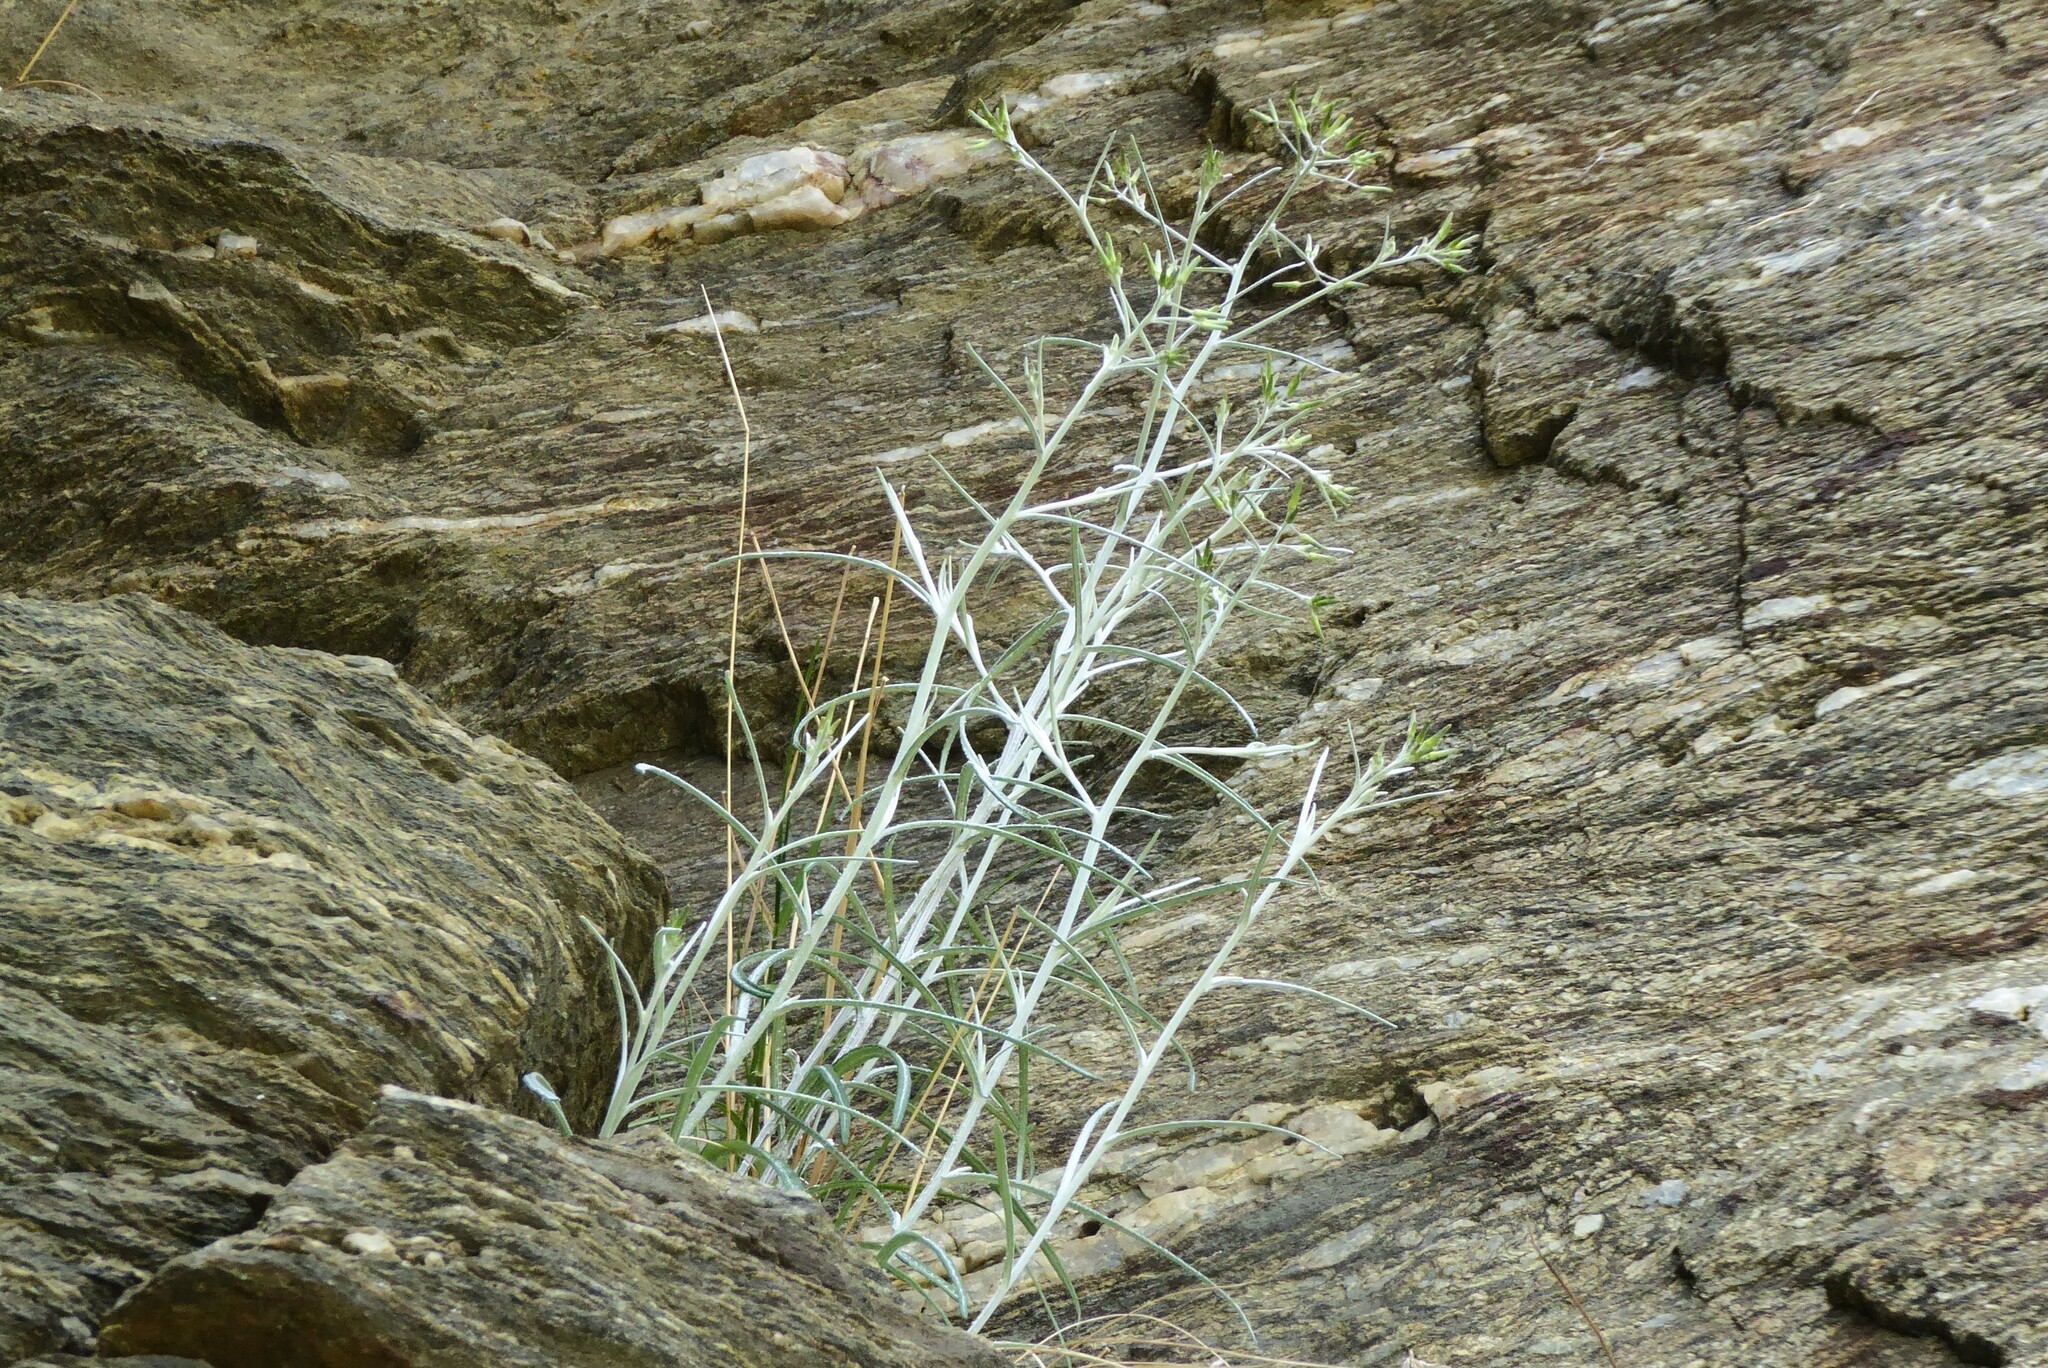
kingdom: Plantae
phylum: Tracheophyta
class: Magnoliopsida
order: Asterales
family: Asteraceae
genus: Senecio
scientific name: Senecio quadridentatus
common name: Cotton fireweed
